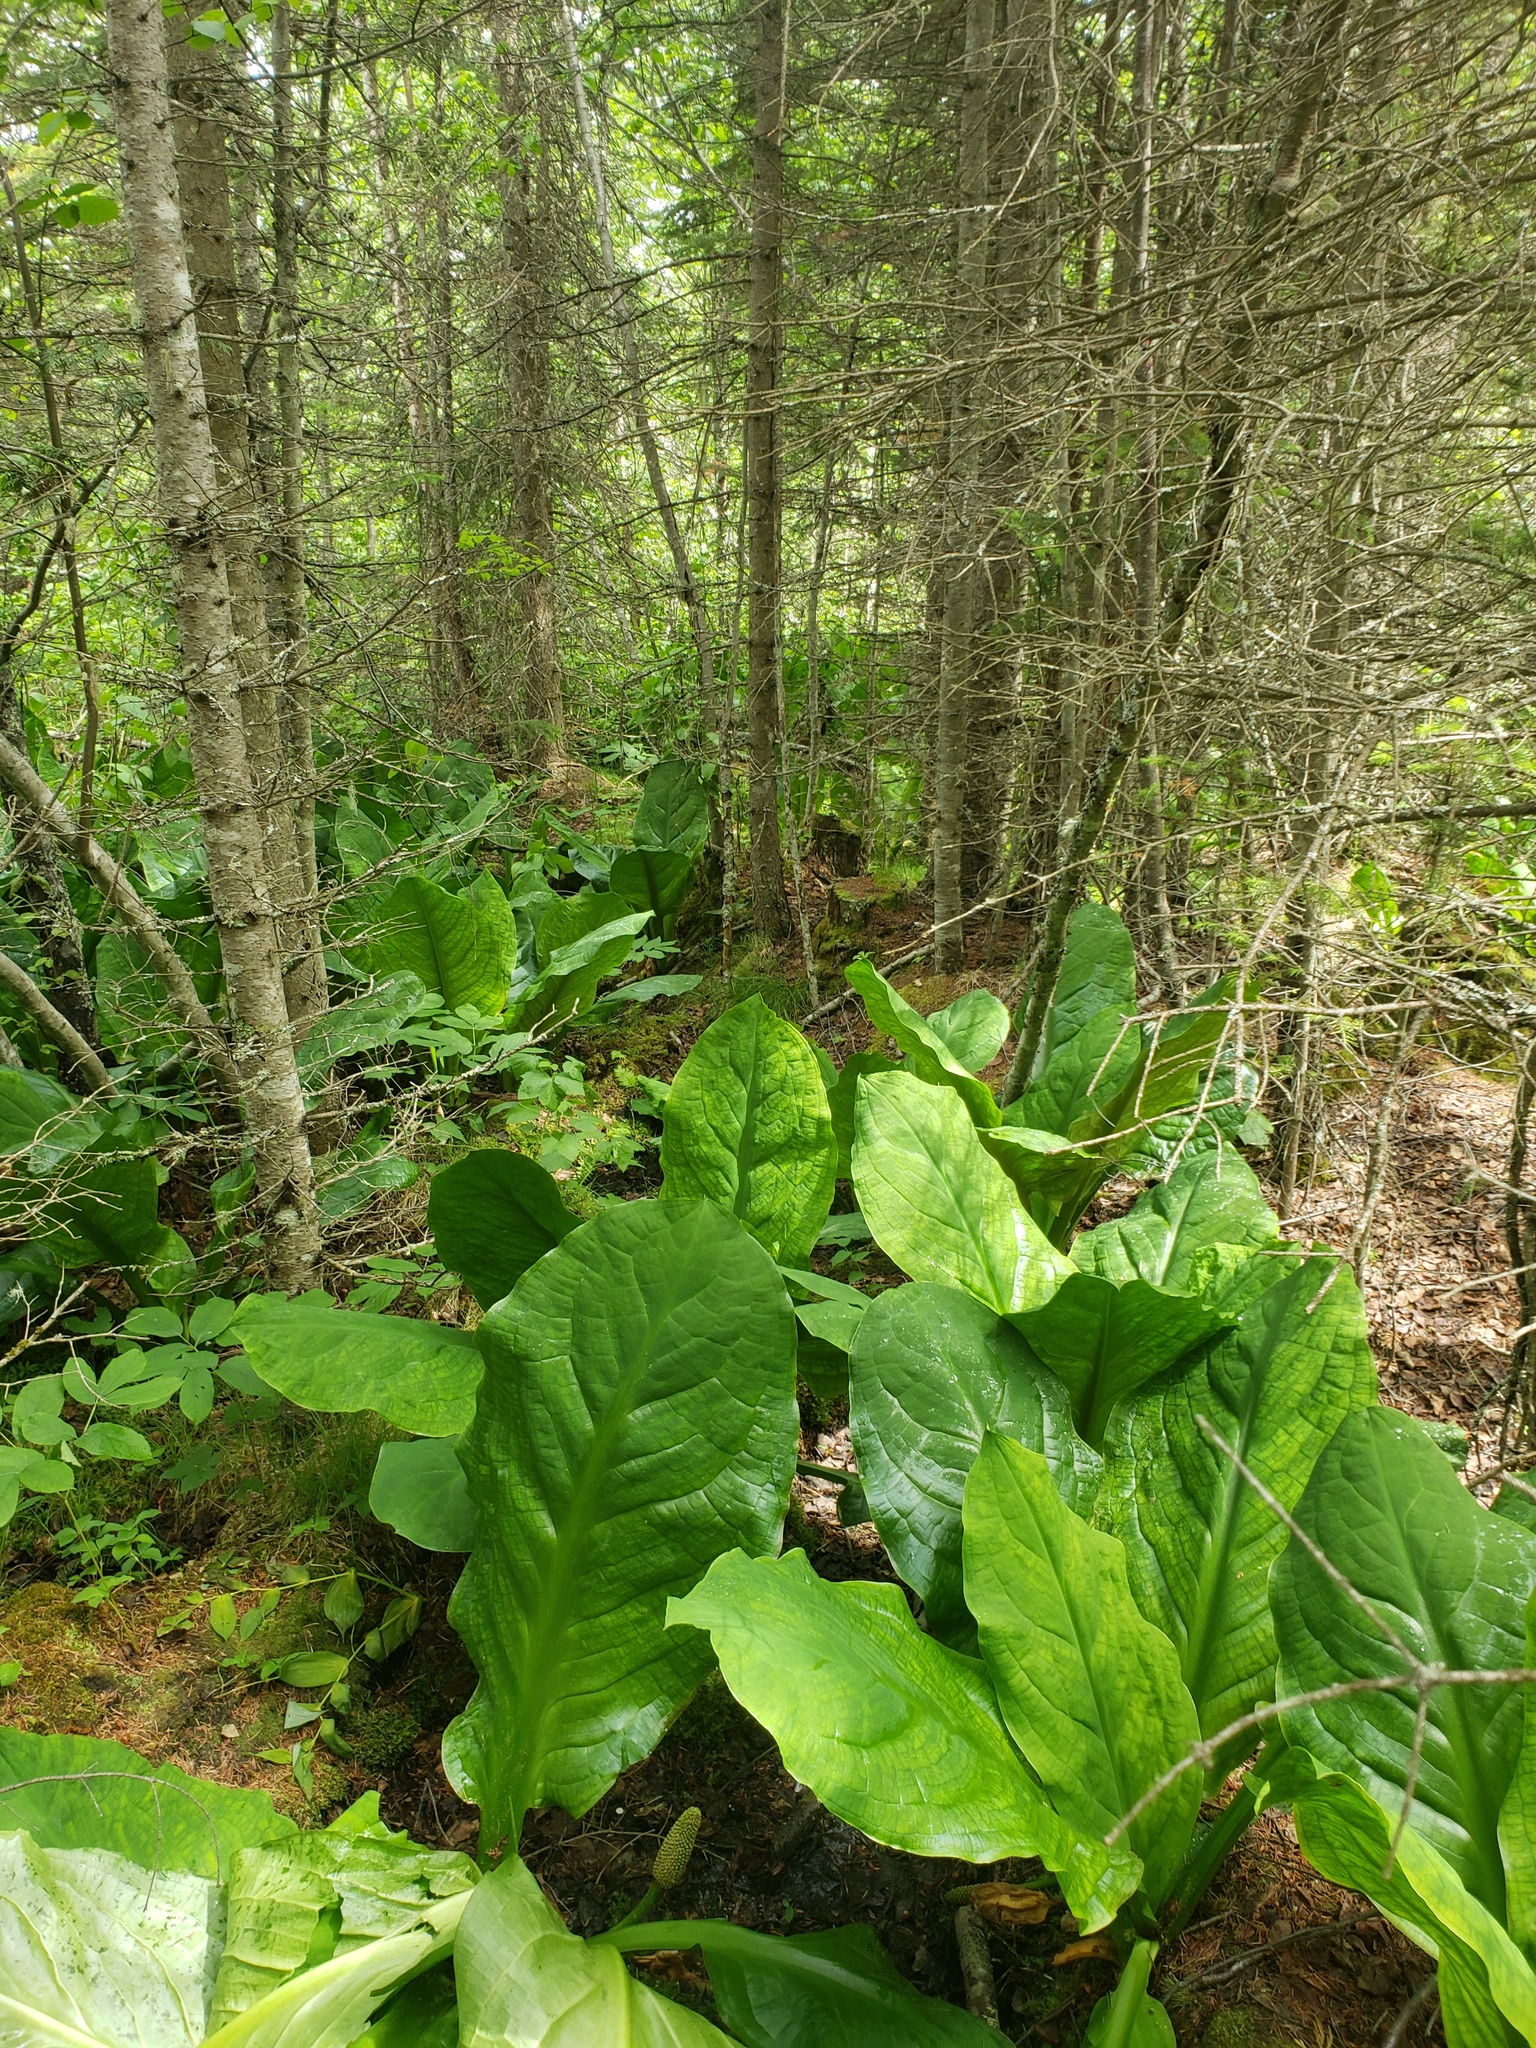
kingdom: Plantae
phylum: Tracheophyta
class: Liliopsida
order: Alismatales
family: Araceae
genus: Lysichiton
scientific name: Lysichiton americanus
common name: American skunk cabbage
